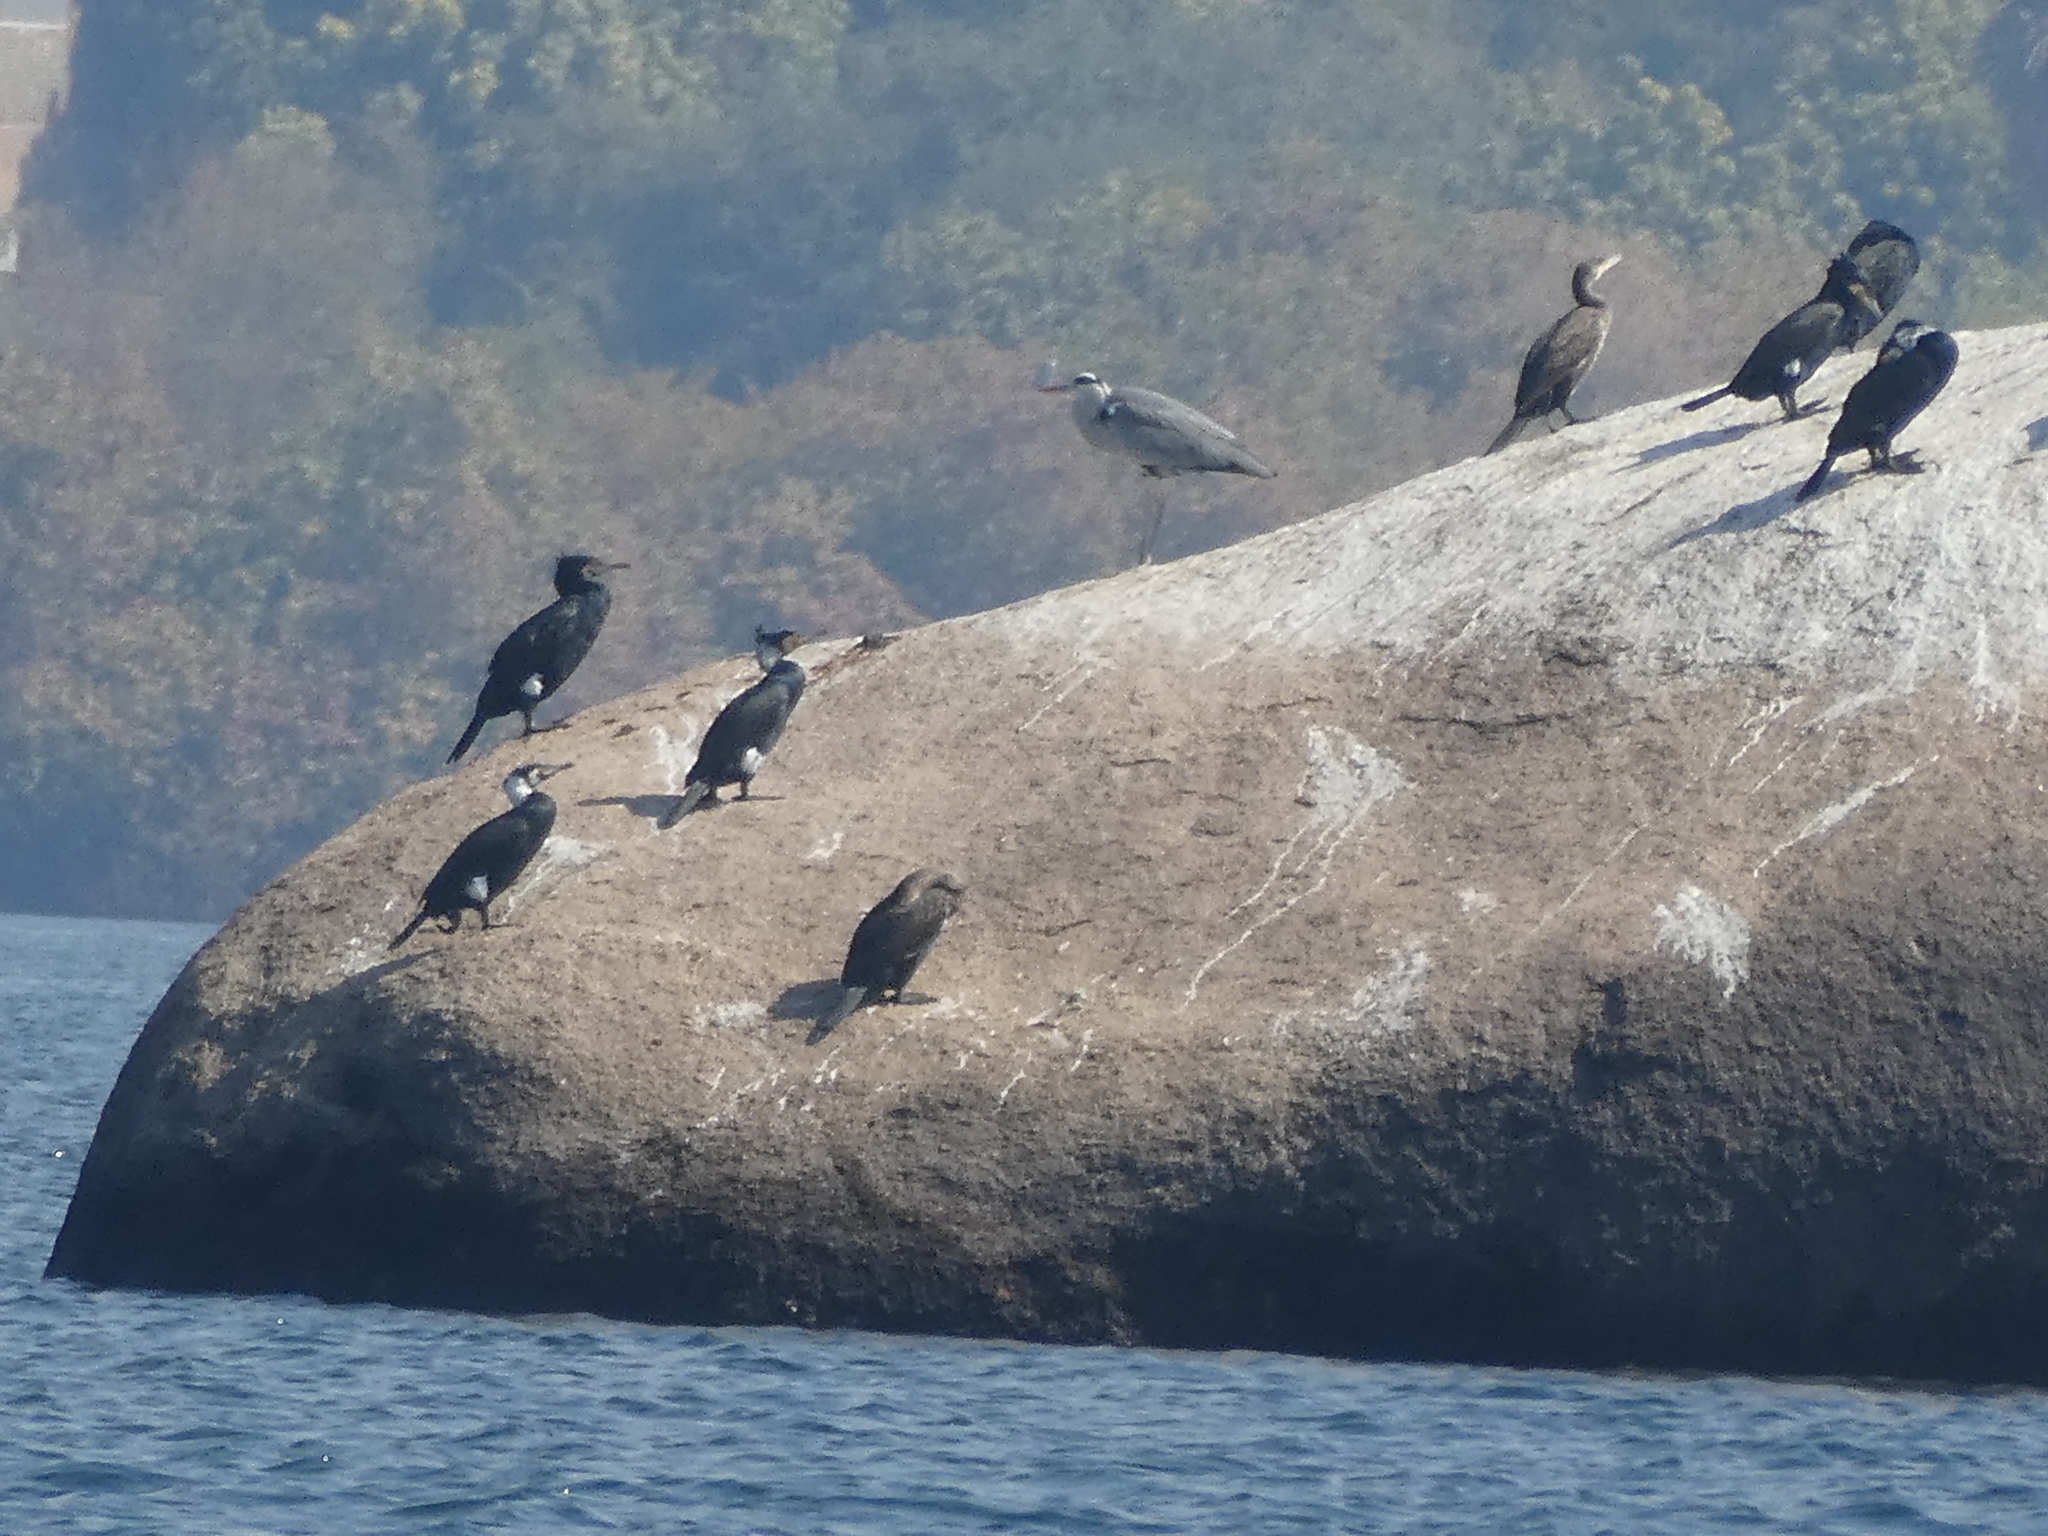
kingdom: Animalia
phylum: Chordata
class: Aves
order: Suliformes
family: Phalacrocoracidae
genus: Phalacrocorax
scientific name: Phalacrocorax carbo
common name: Great cormorant
